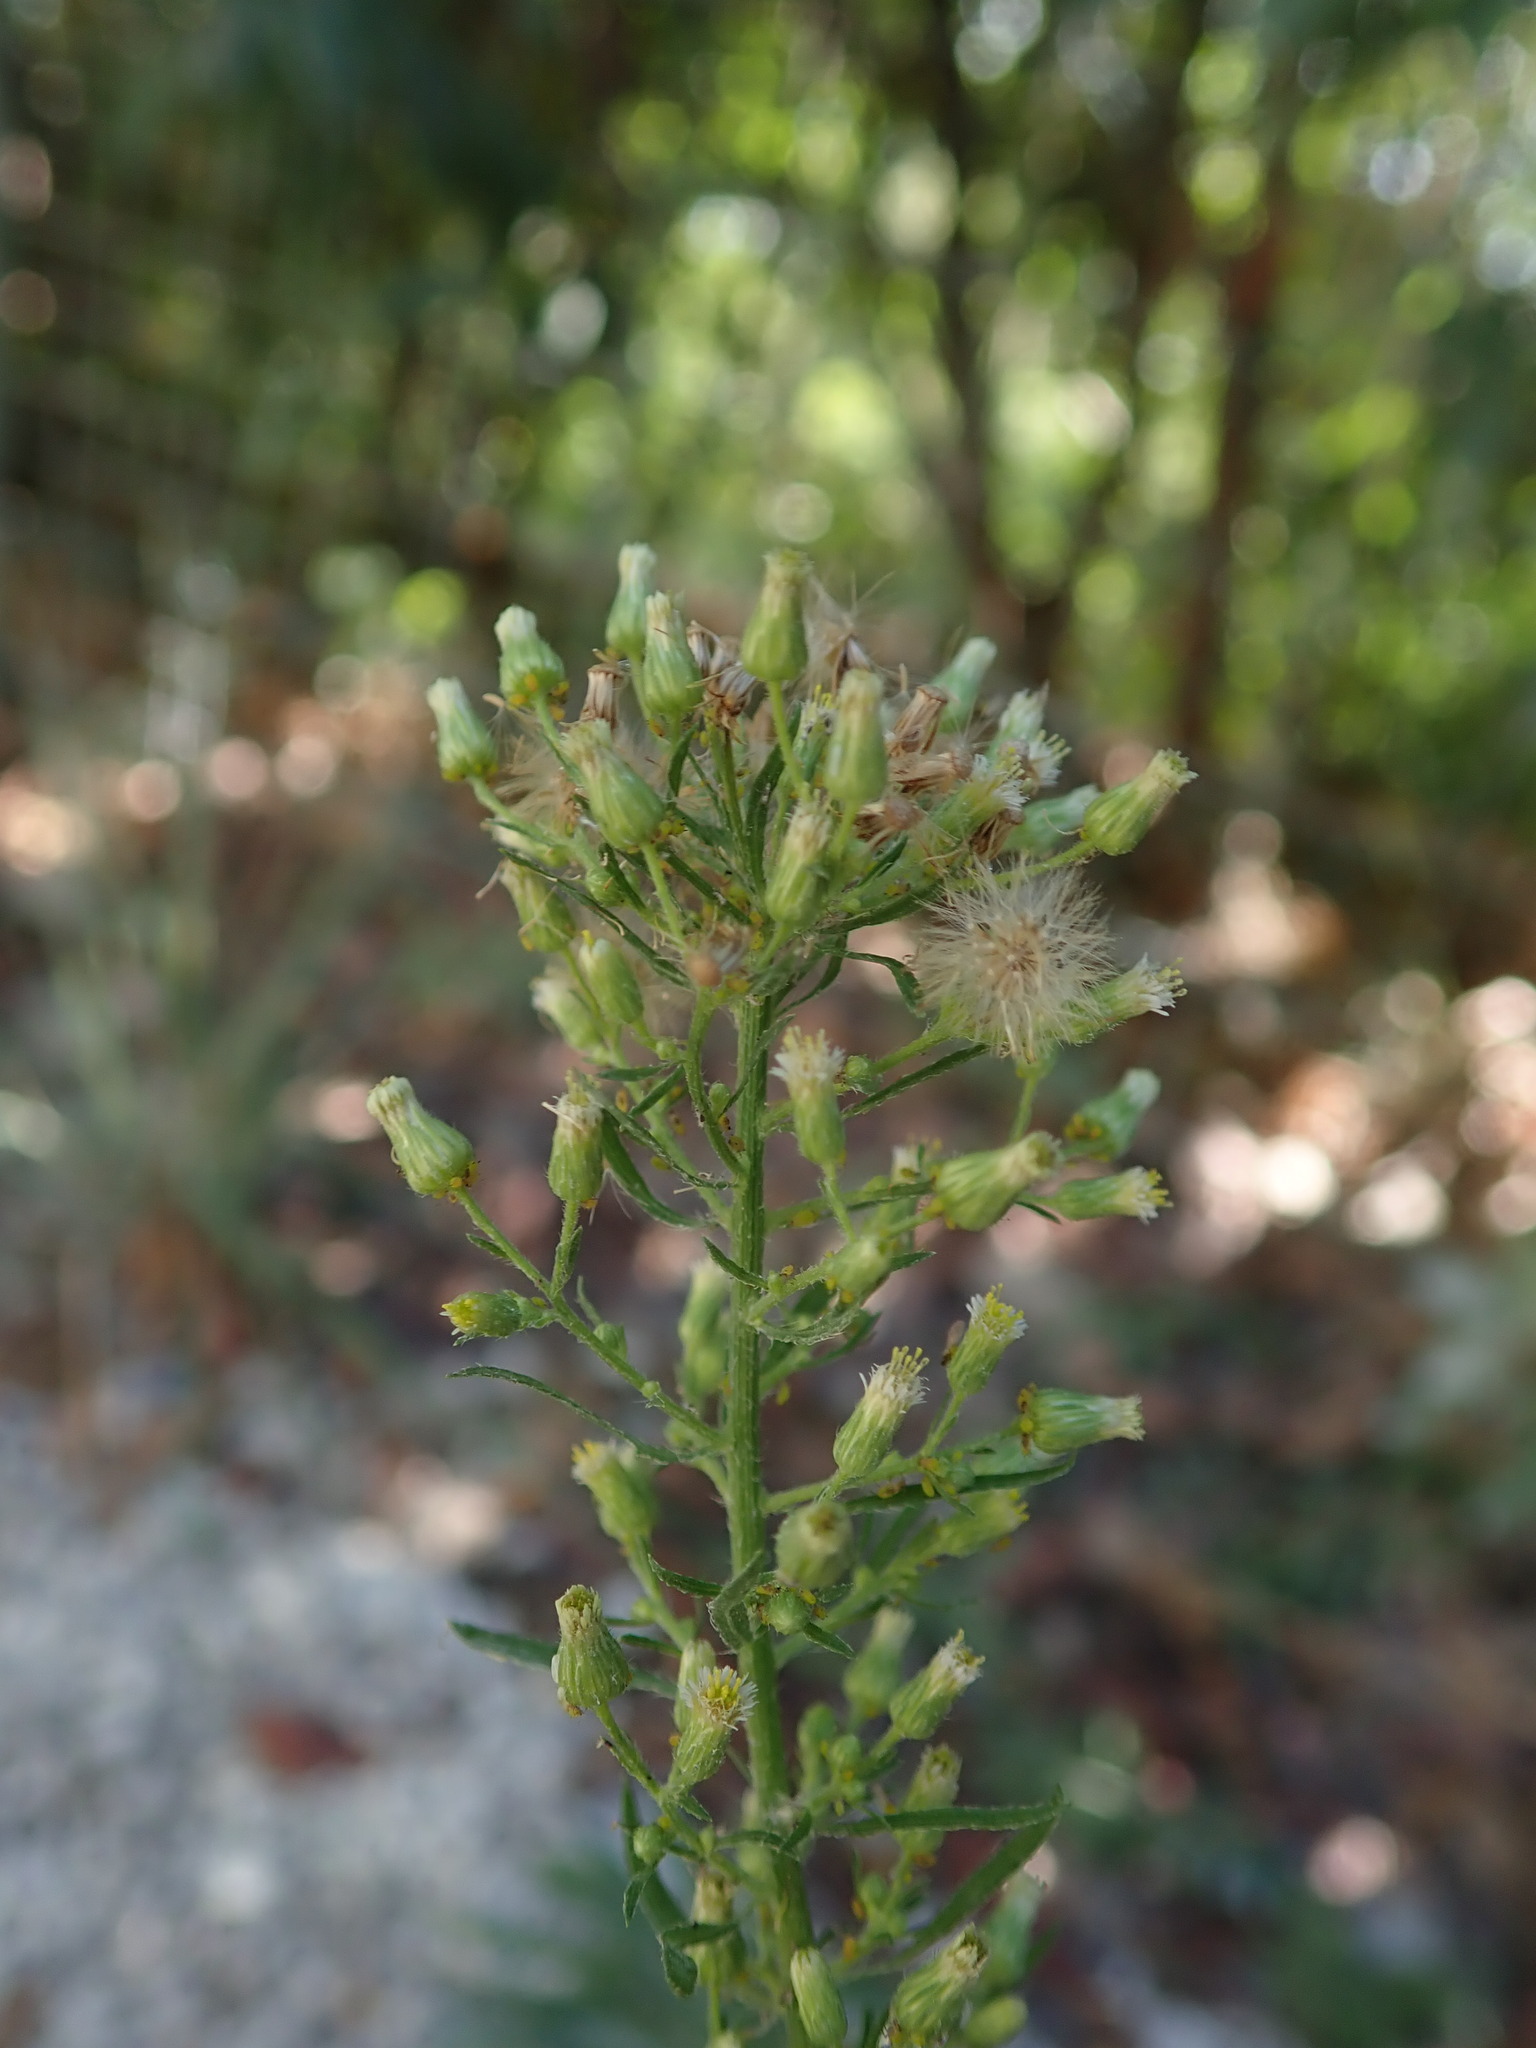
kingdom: Plantae
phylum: Tracheophyta
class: Magnoliopsida
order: Asterales
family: Asteraceae
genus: Erigeron
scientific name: Erigeron canadensis
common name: Canadian fleabane
